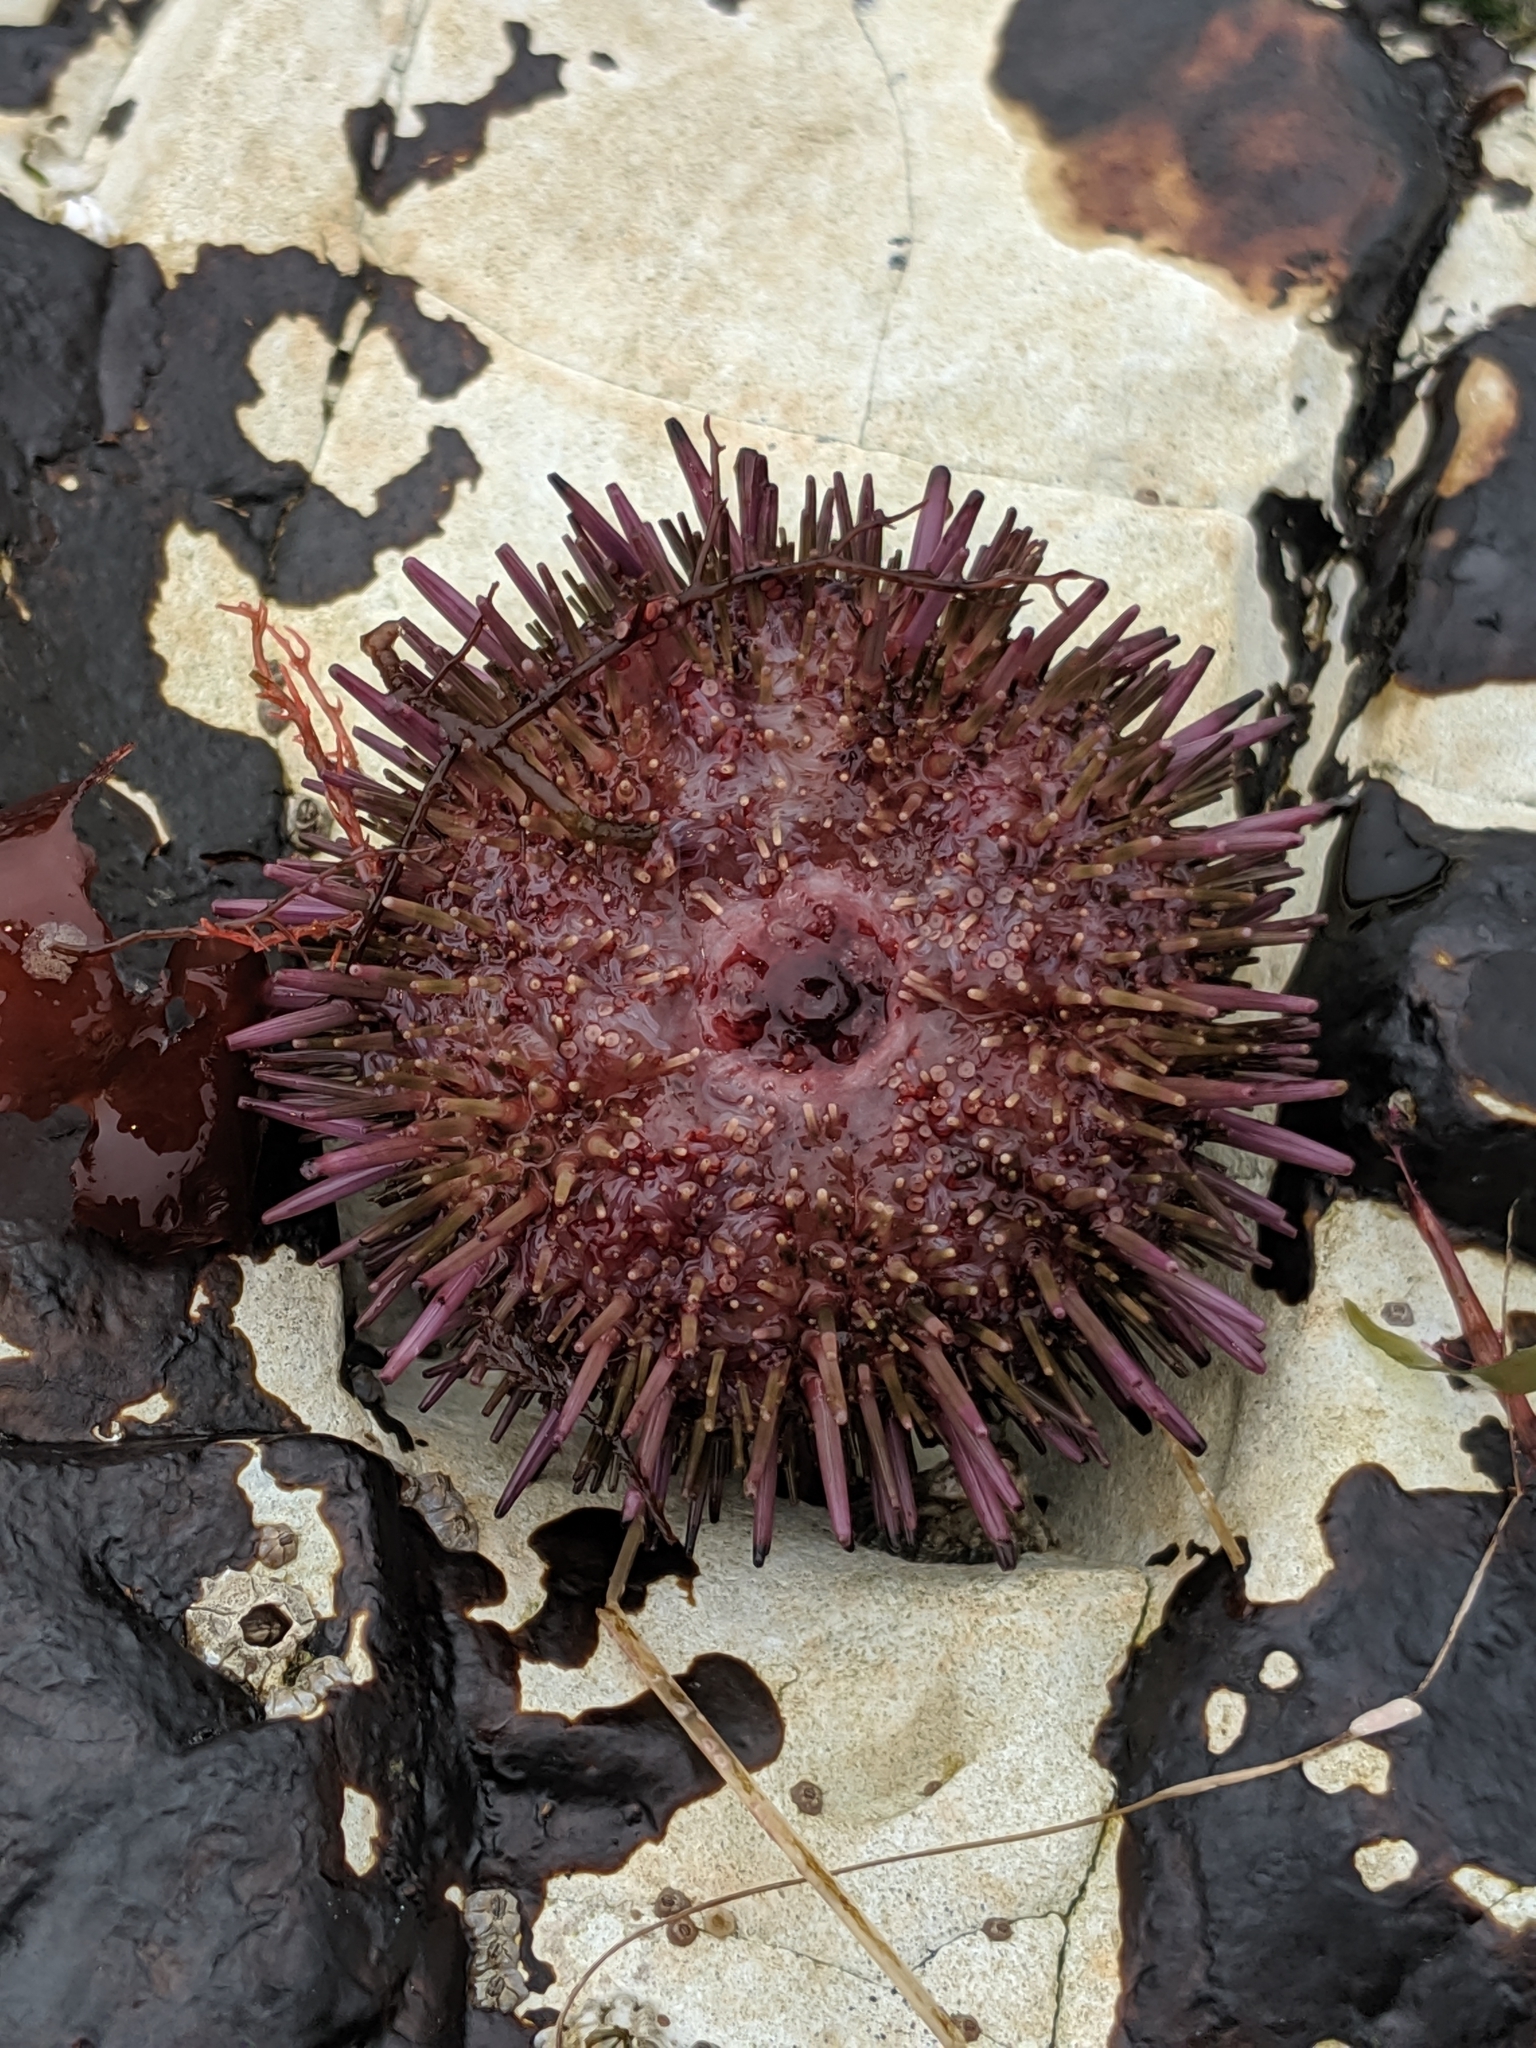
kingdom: Animalia
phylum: Echinodermata
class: Echinoidea
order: Camarodonta
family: Strongylocentrotidae
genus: Strongylocentrotus
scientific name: Strongylocentrotus purpuratus
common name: Purple sea urchin
